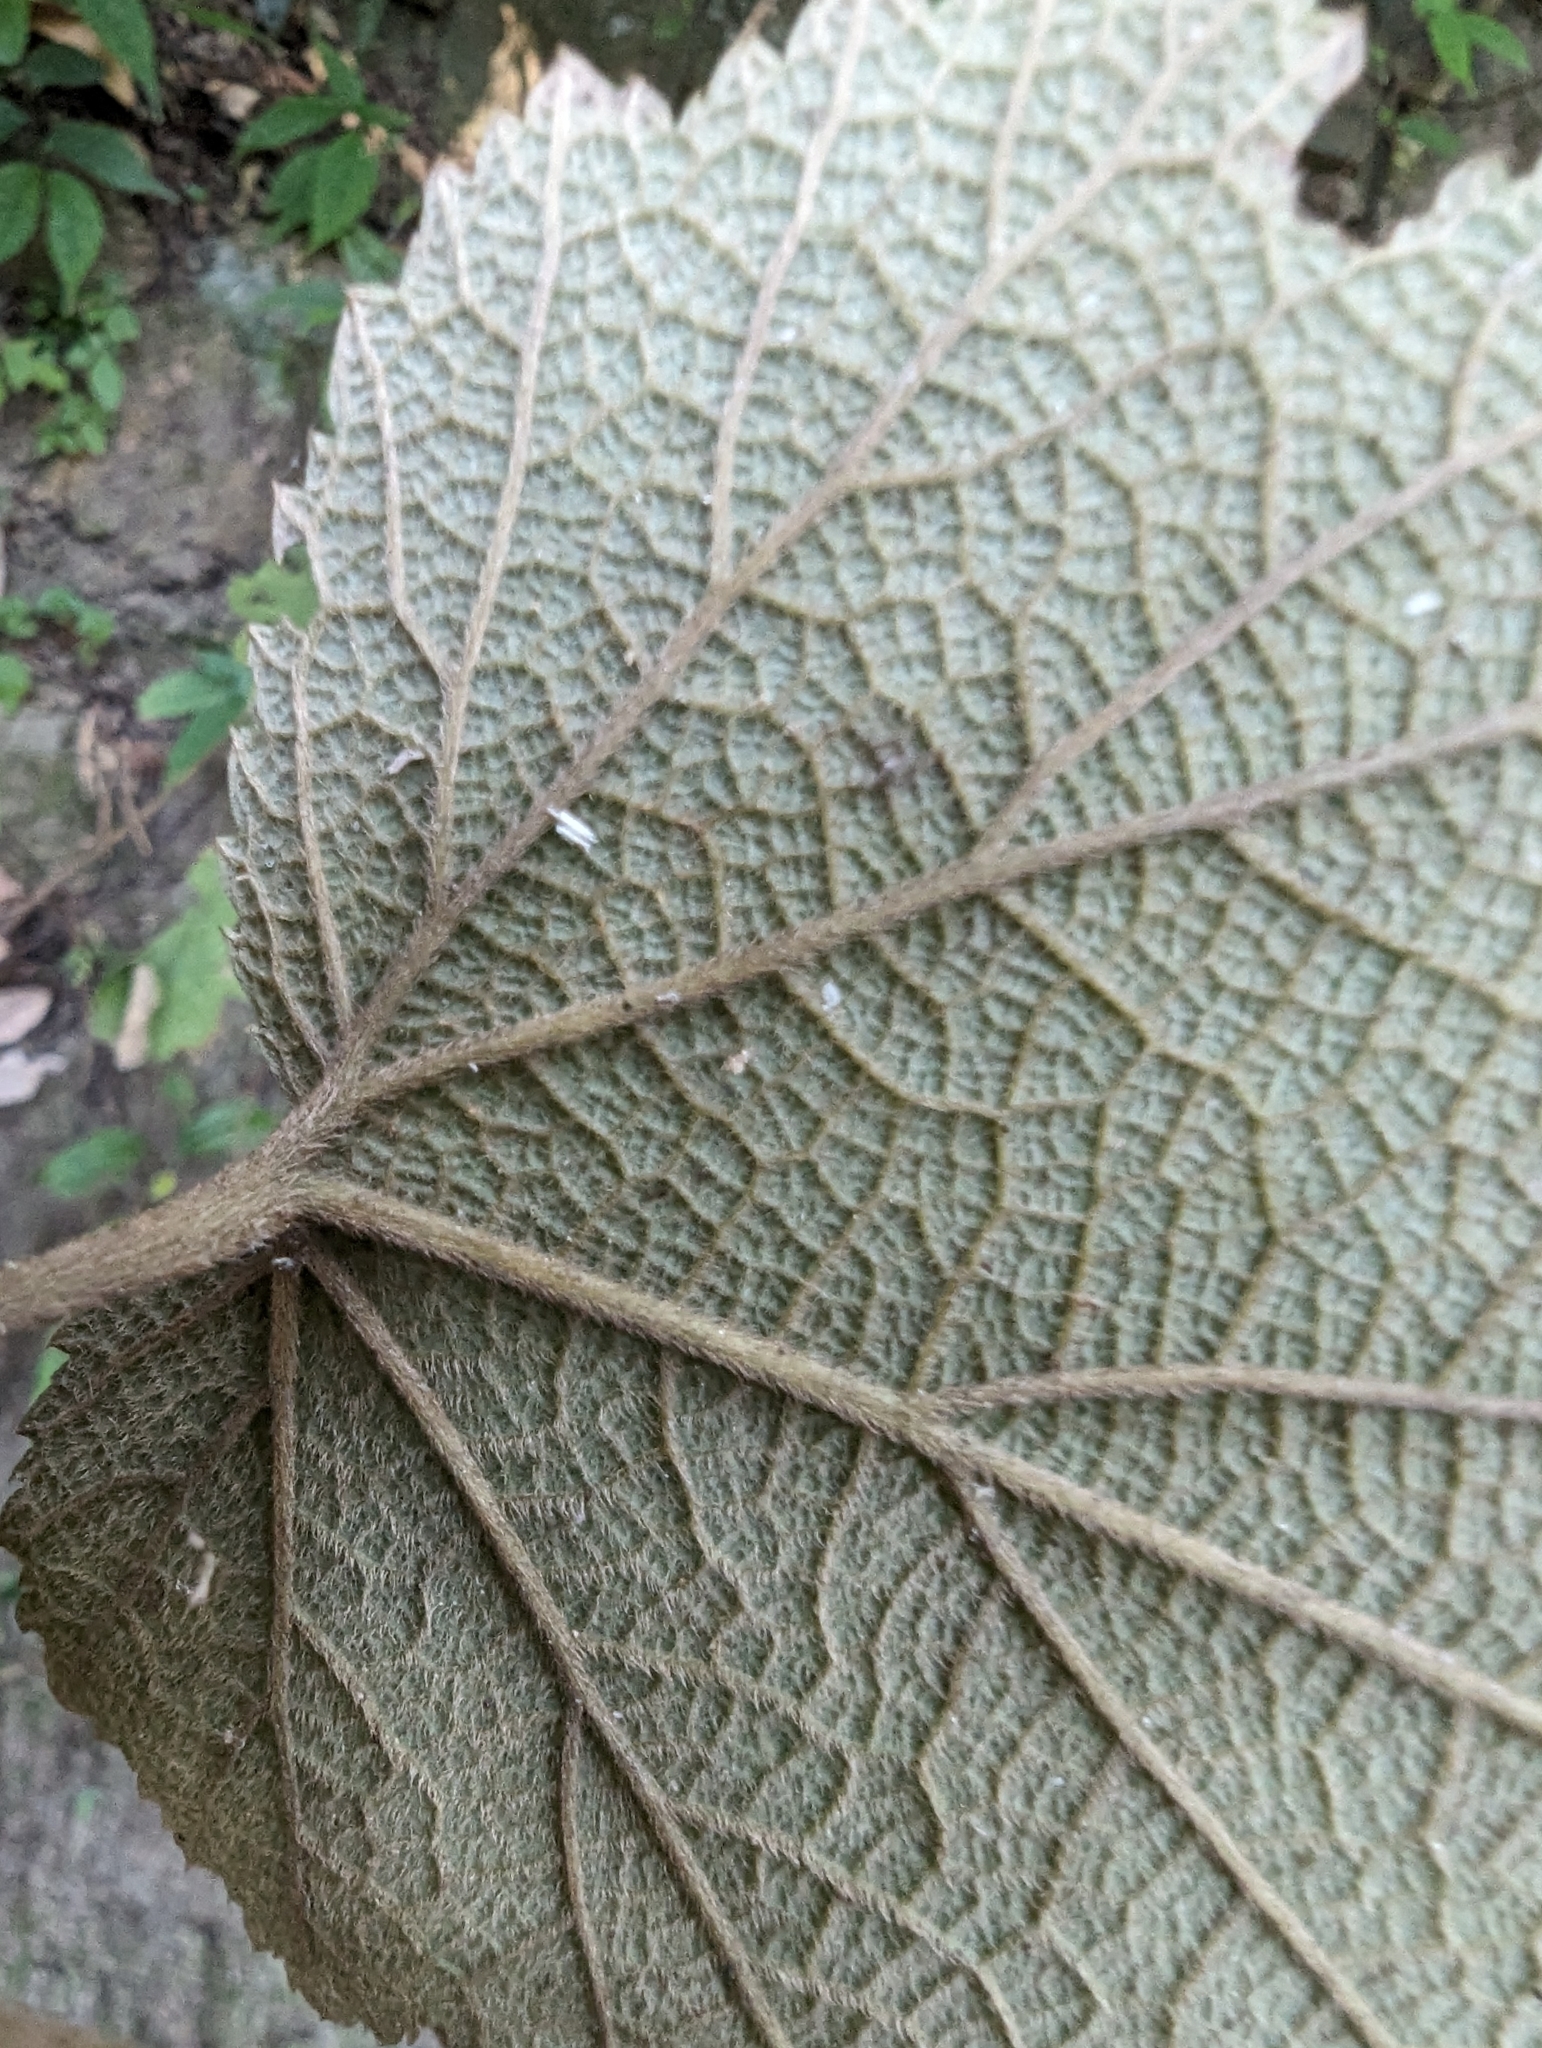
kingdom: Plantae
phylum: Tracheophyta
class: Magnoliopsida
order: Rosales
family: Rosaceae
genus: Rubus
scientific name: Rubus formosensis
